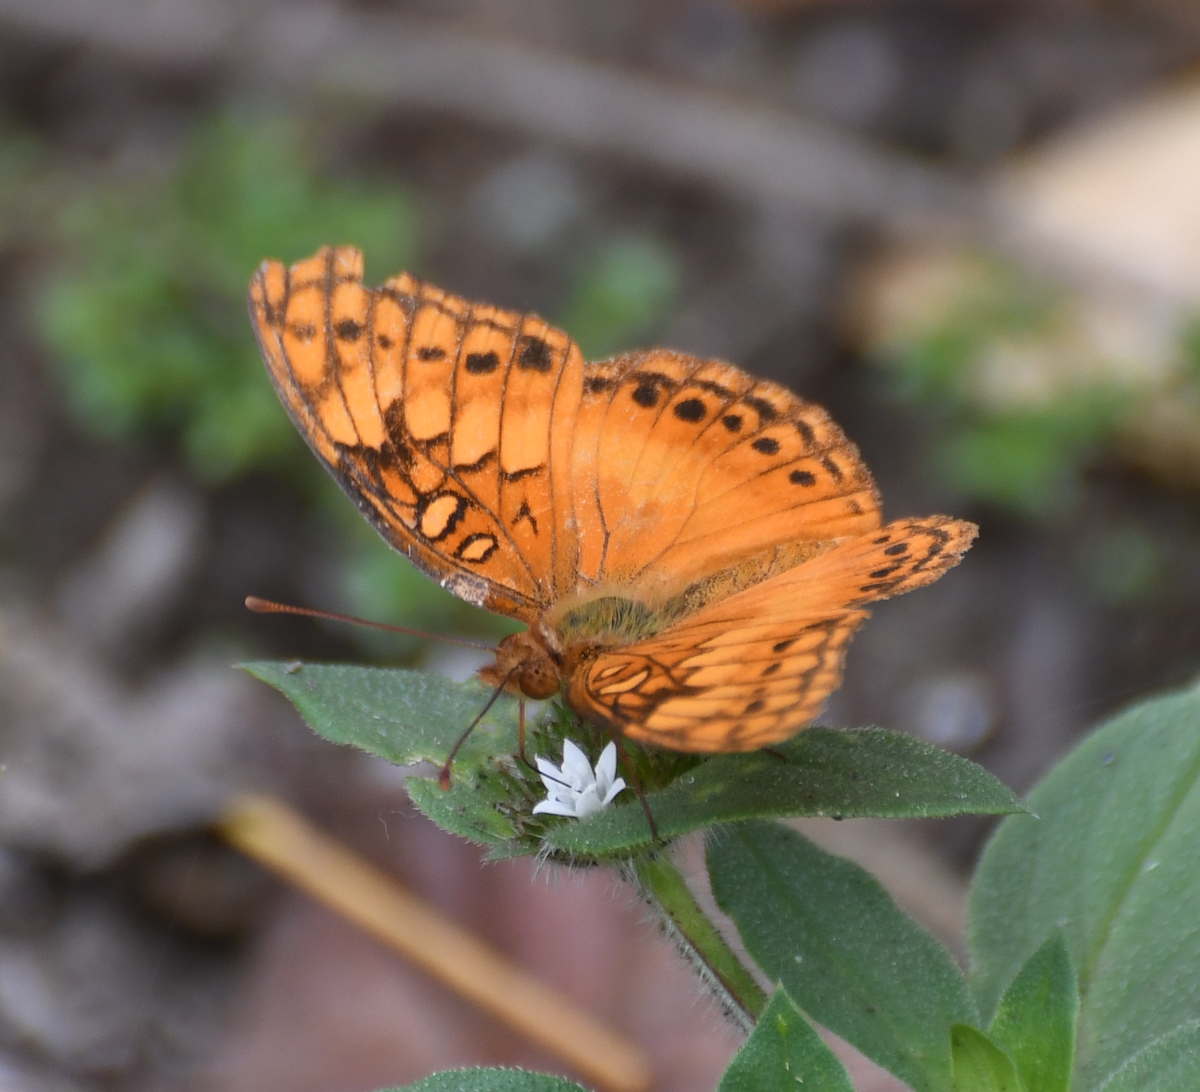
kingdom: Animalia
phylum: Arthropoda
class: Insecta
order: Lepidoptera
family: Nymphalidae
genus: Euptoieta
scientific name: Euptoieta hegesia
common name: Mexican fritillary
